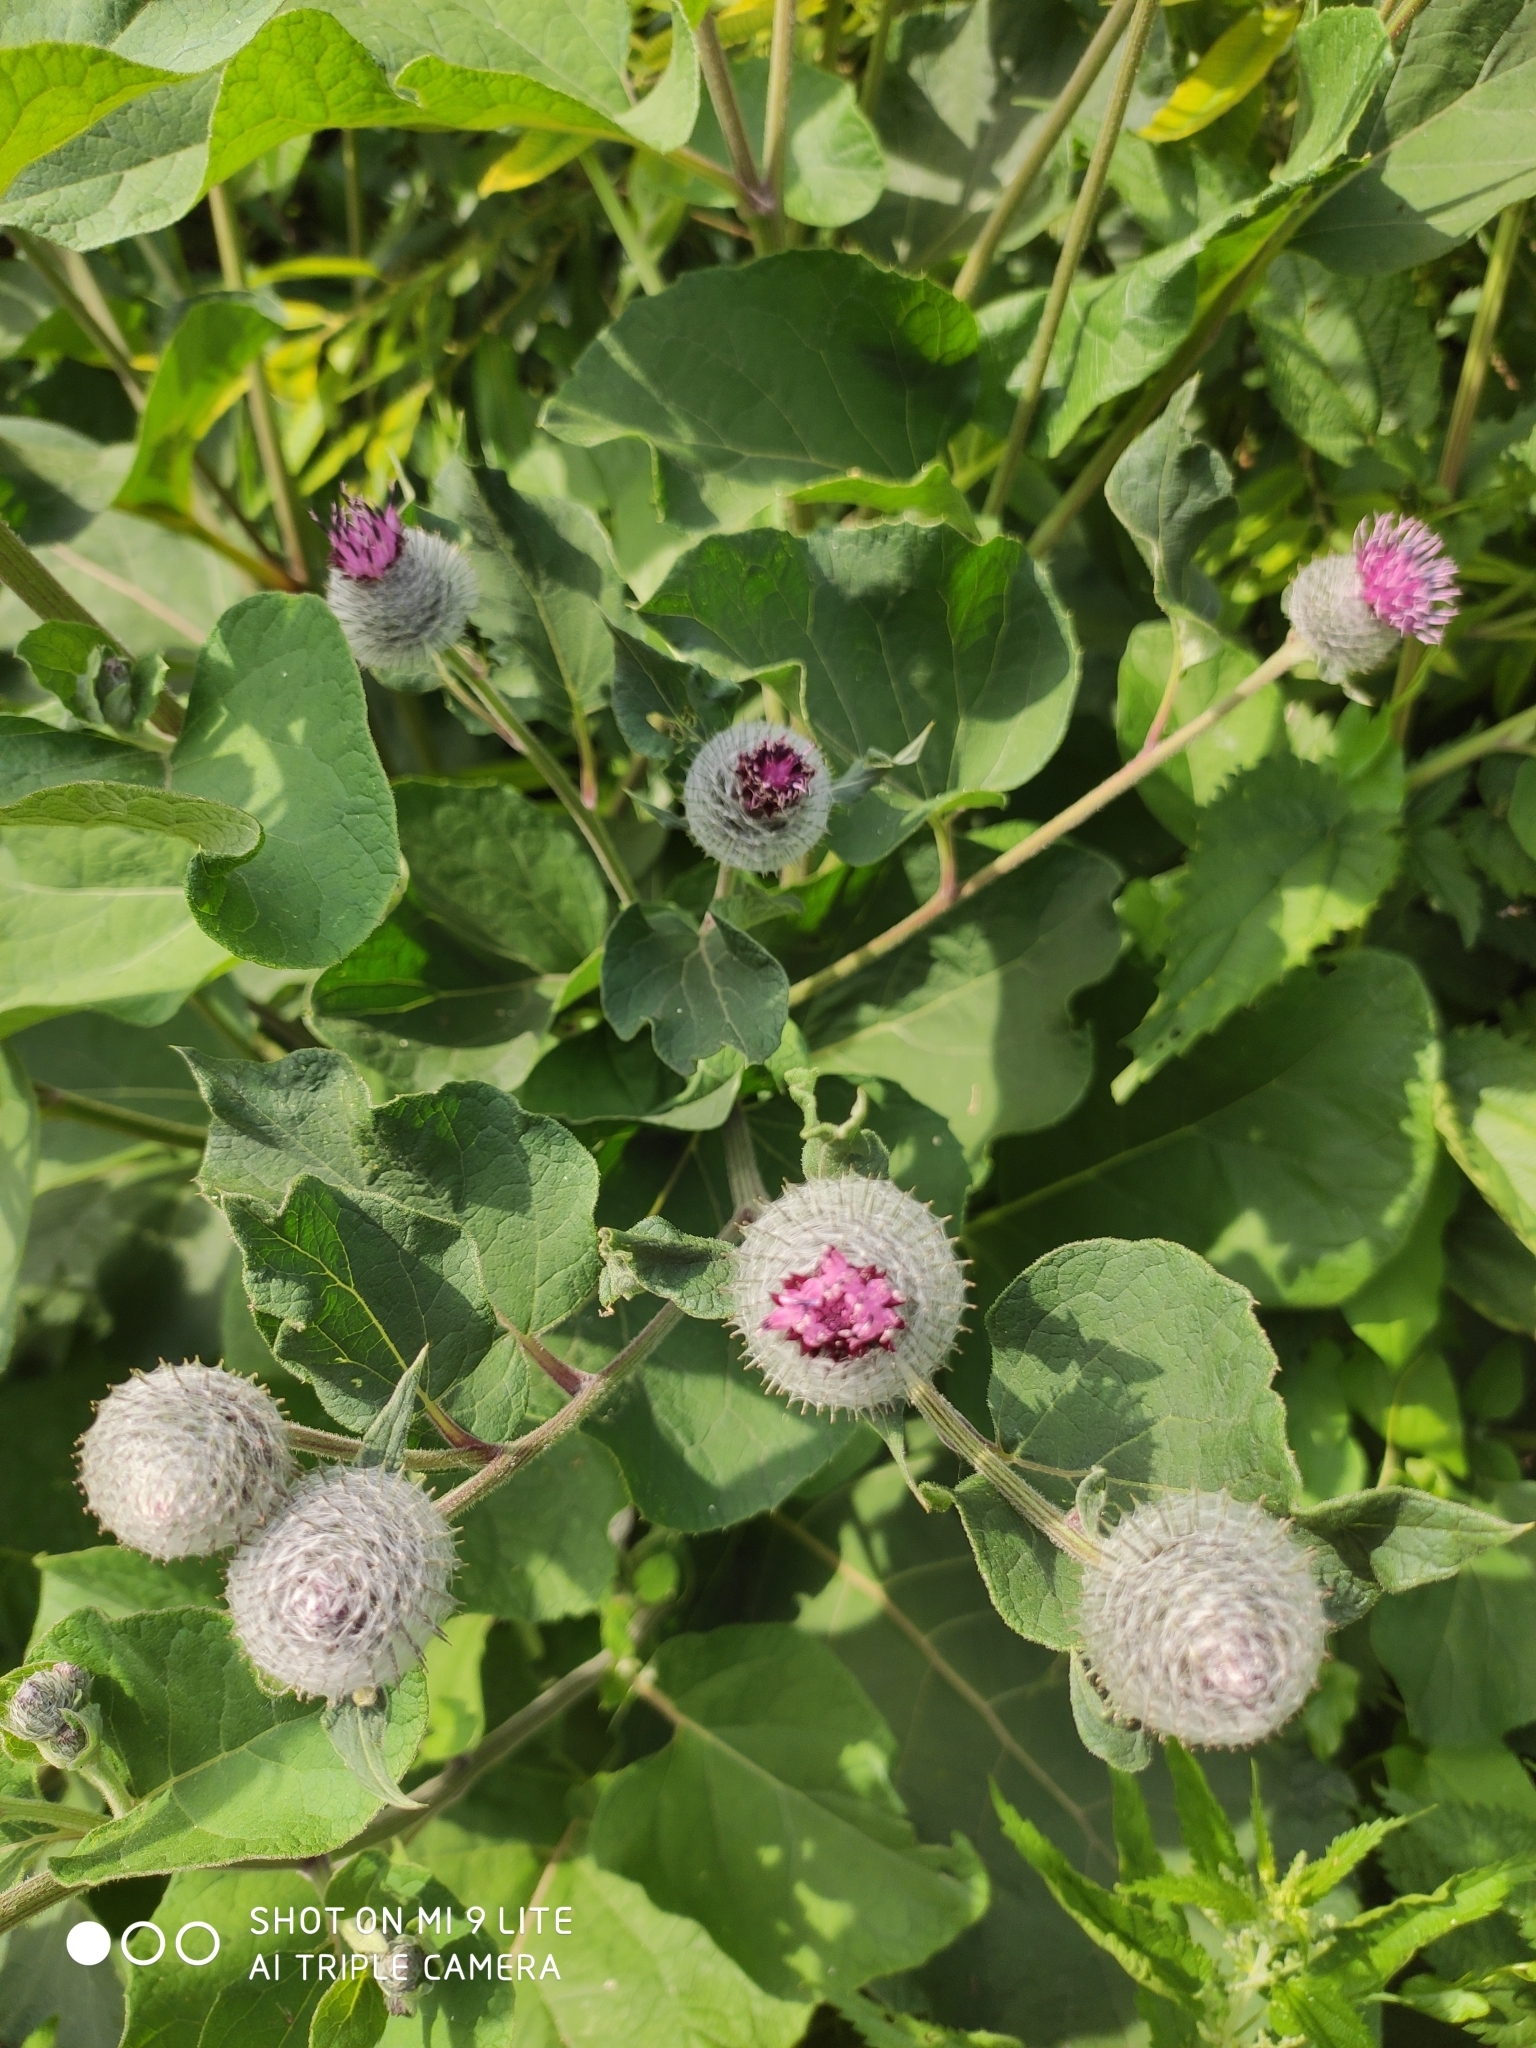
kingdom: Plantae
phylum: Tracheophyta
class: Magnoliopsida
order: Asterales
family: Asteraceae
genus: Arctium
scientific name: Arctium tomentosum
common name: Woolly burdock
